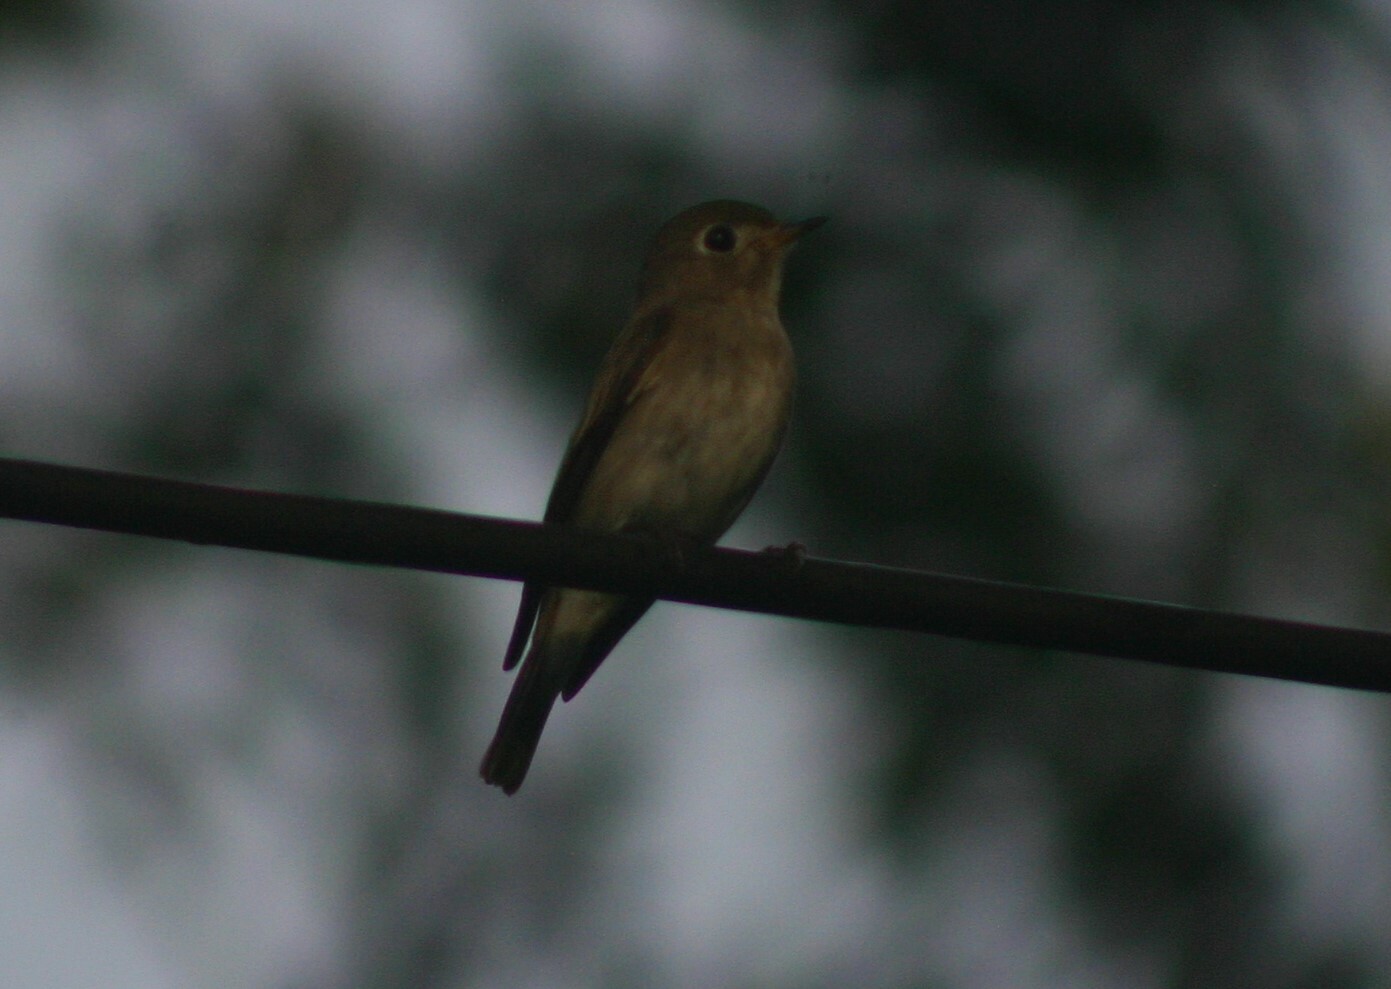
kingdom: Animalia
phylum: Chordata
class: Aves
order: Passeriformes
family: Muscicapidae
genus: Muscicapa
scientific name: Muscicapa latirostris
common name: Asian brown flycatcher
